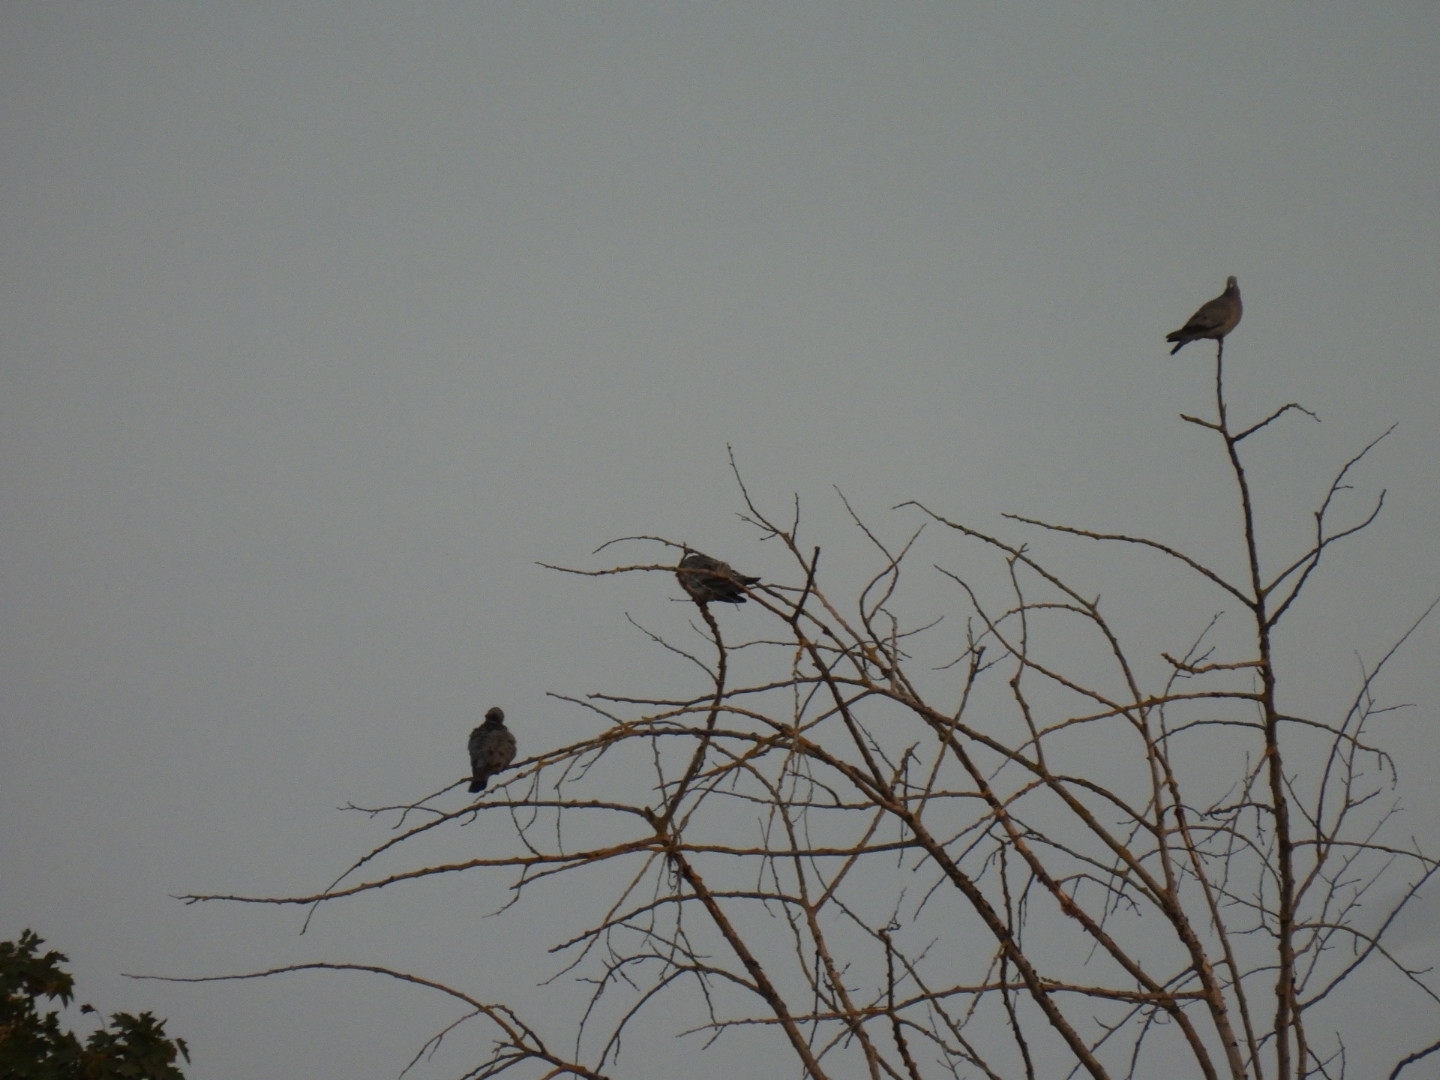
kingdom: Animalia
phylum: Chordata
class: Aves
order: Columbiformes
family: Columbidae
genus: Columba
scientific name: Columba palumbus
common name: Common wood pigeon
